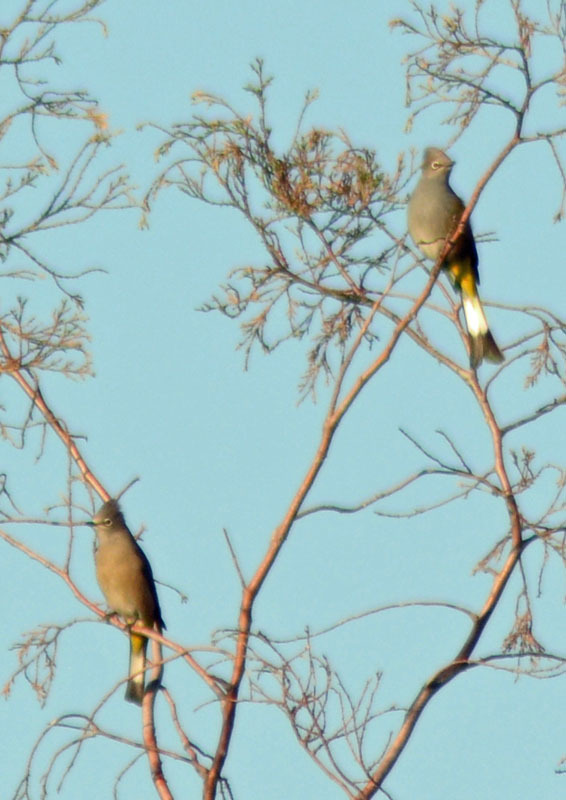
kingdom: Animalia
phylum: Chordata
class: Aves
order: Passeriformes
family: Ptilogonatidae
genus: Ptilogonys
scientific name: Ptilogonys cinereus
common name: Gray silky-flycatcher
